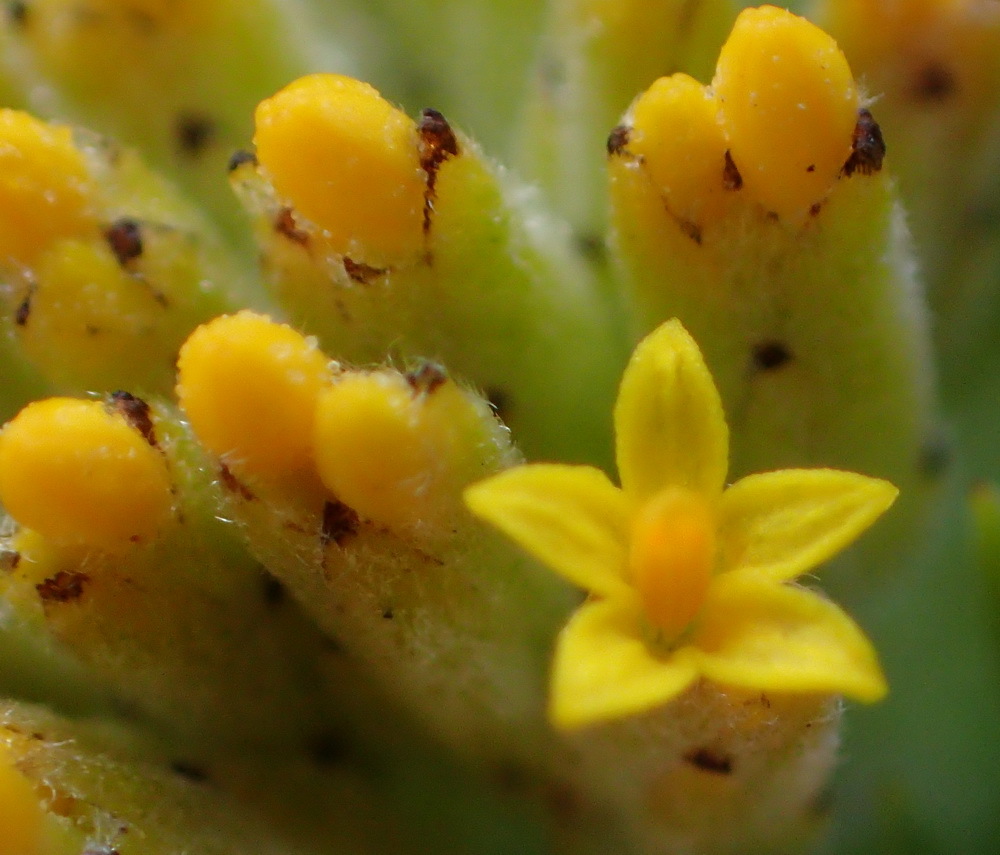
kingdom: Plantae
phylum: Tracheophyta
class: Magnoliopsida
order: Asterales
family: Asteraceae
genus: Hymenolepis
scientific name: Hymenolepis incisa
